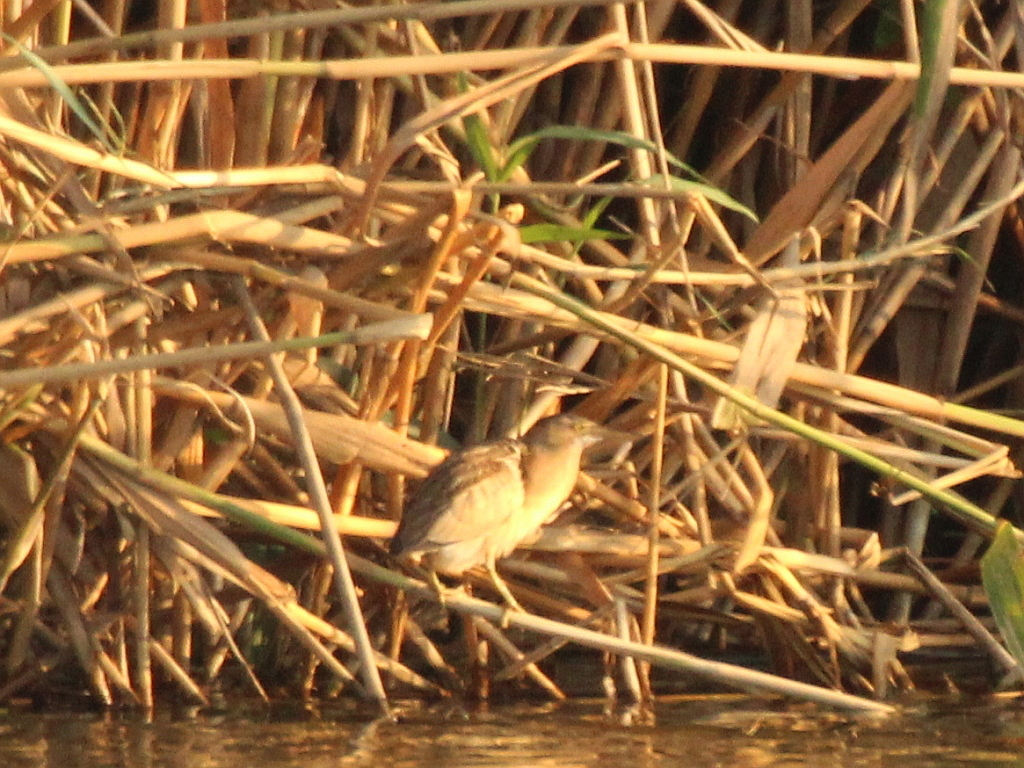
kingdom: Animalia
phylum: Chordata
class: Aves
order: Pelecaniformes
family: Ardeidae
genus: Ixobrychus
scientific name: Ixobrychus minutus
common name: Little bittern
